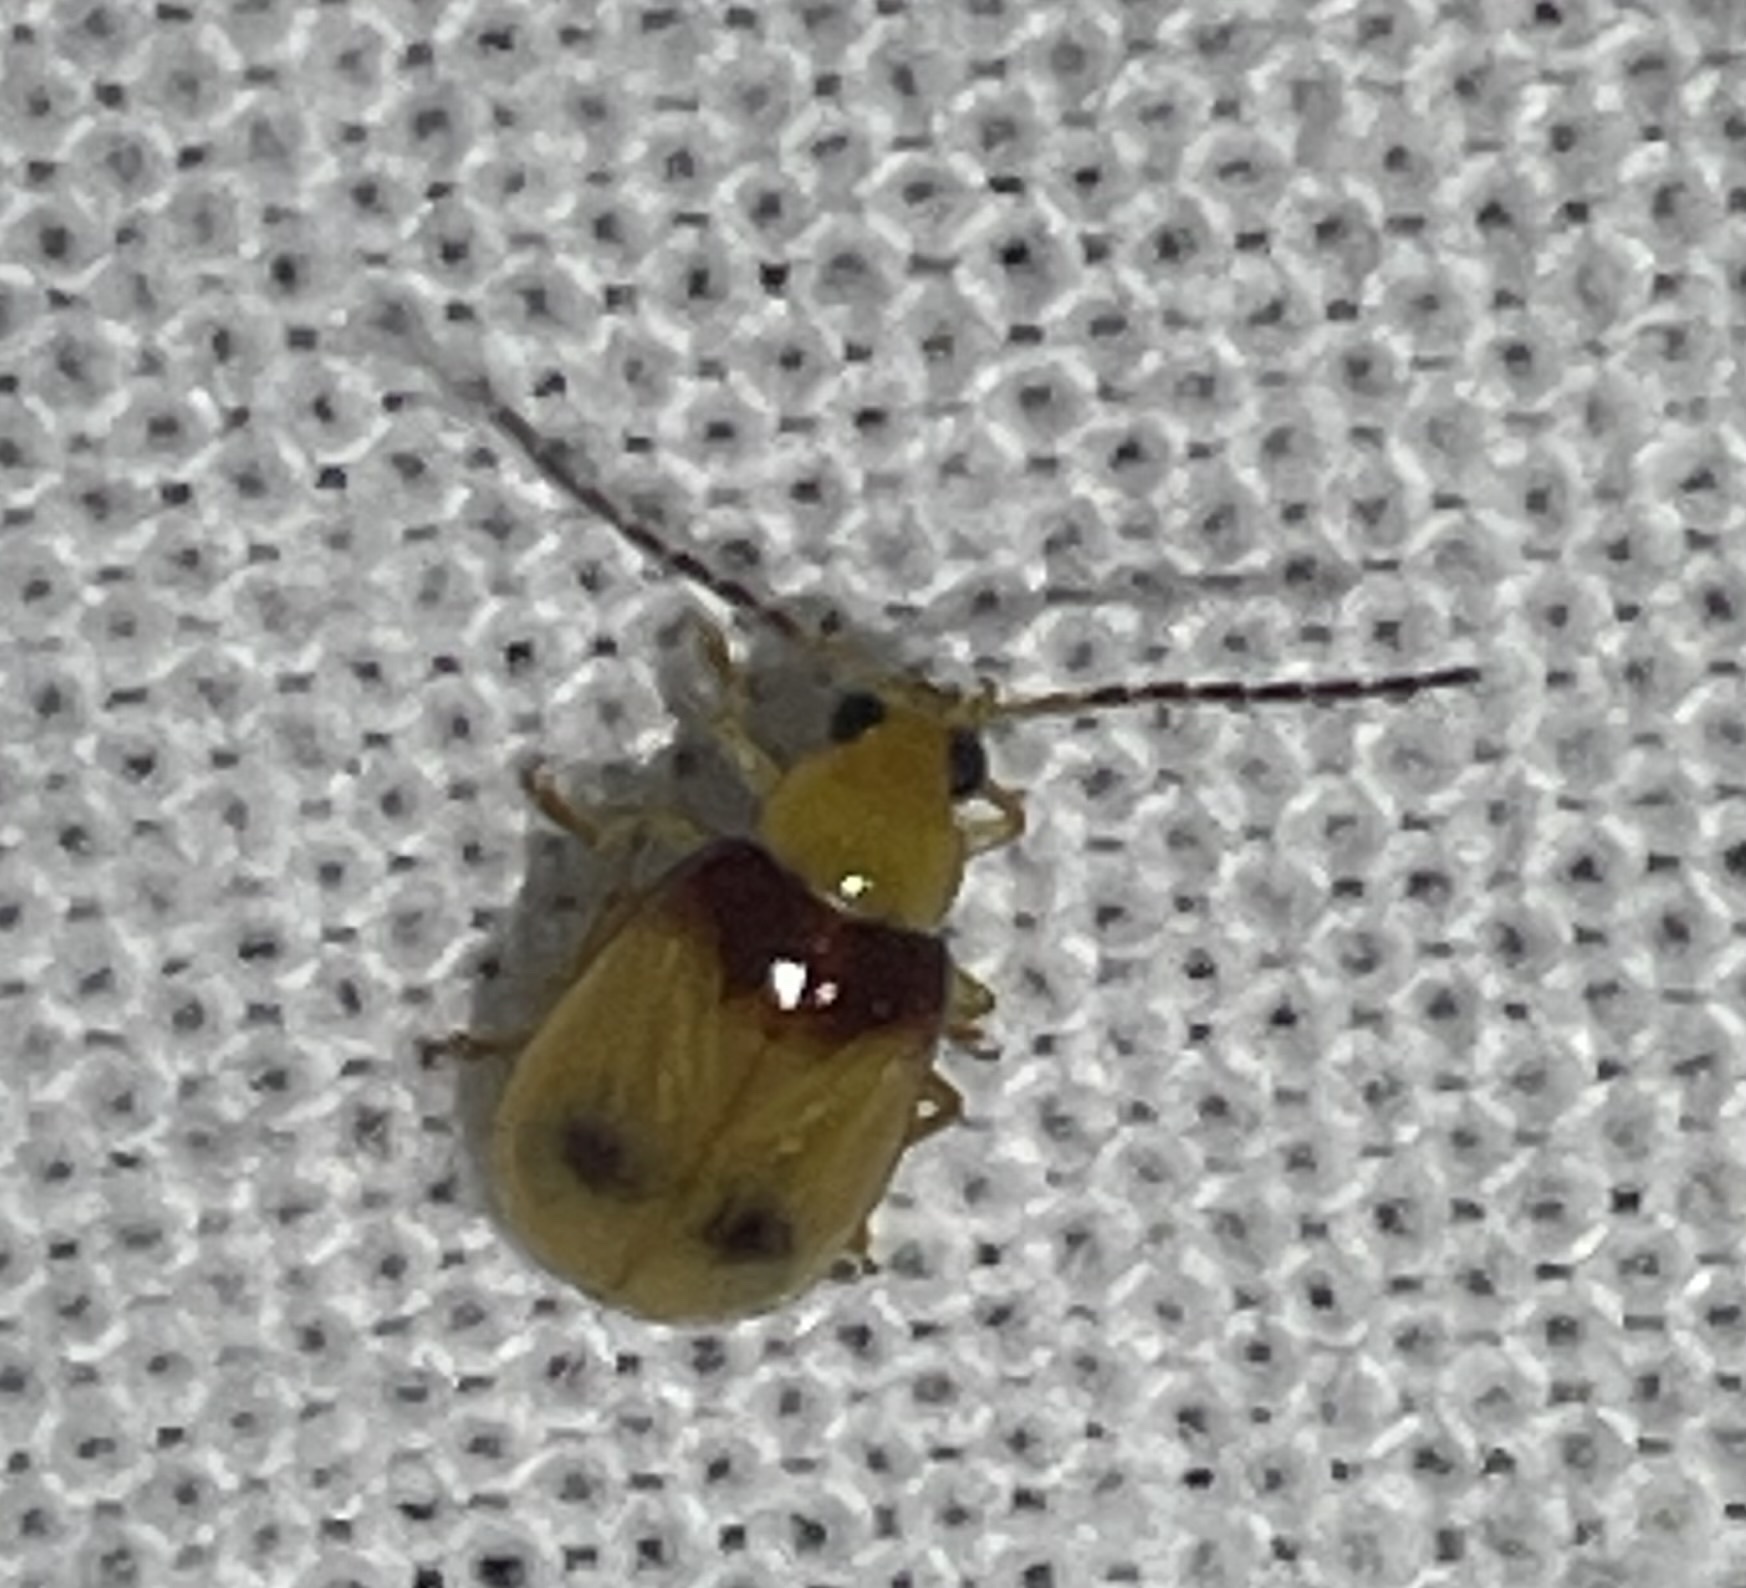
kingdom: Animalia
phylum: Arthropoda
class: Insecta
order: Coleoptera
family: Chrysomelidae
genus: Monolepta
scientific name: Monolepta
